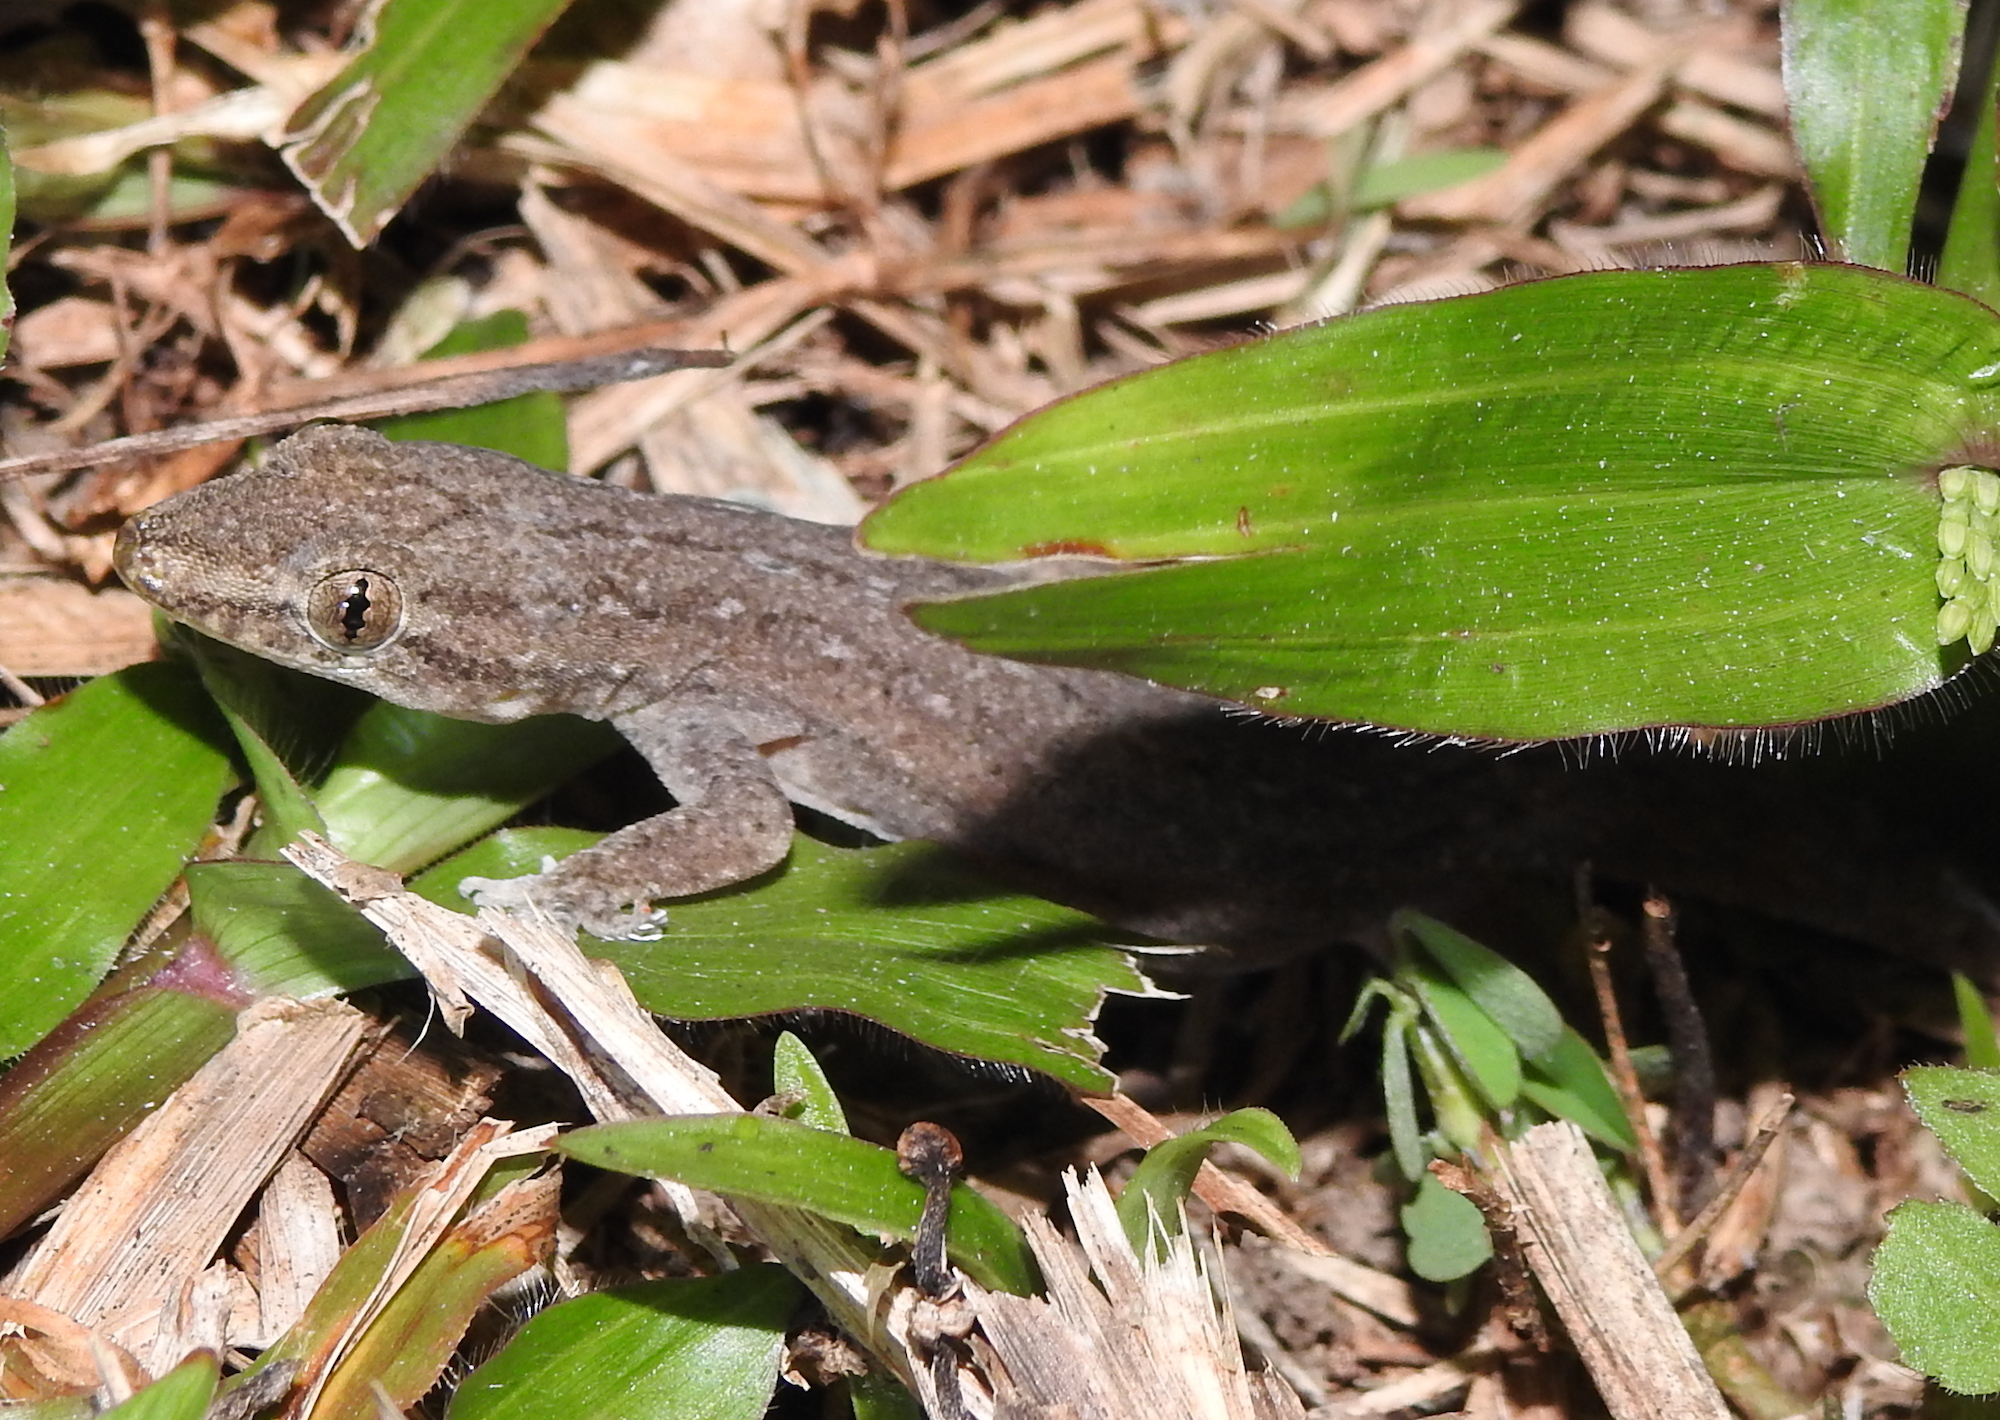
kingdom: Animalia
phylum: Chordata
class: Squamata
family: Gekkonidae
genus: Hemidactylus
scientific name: Hemidactylus frenatus
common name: Common house gecko
